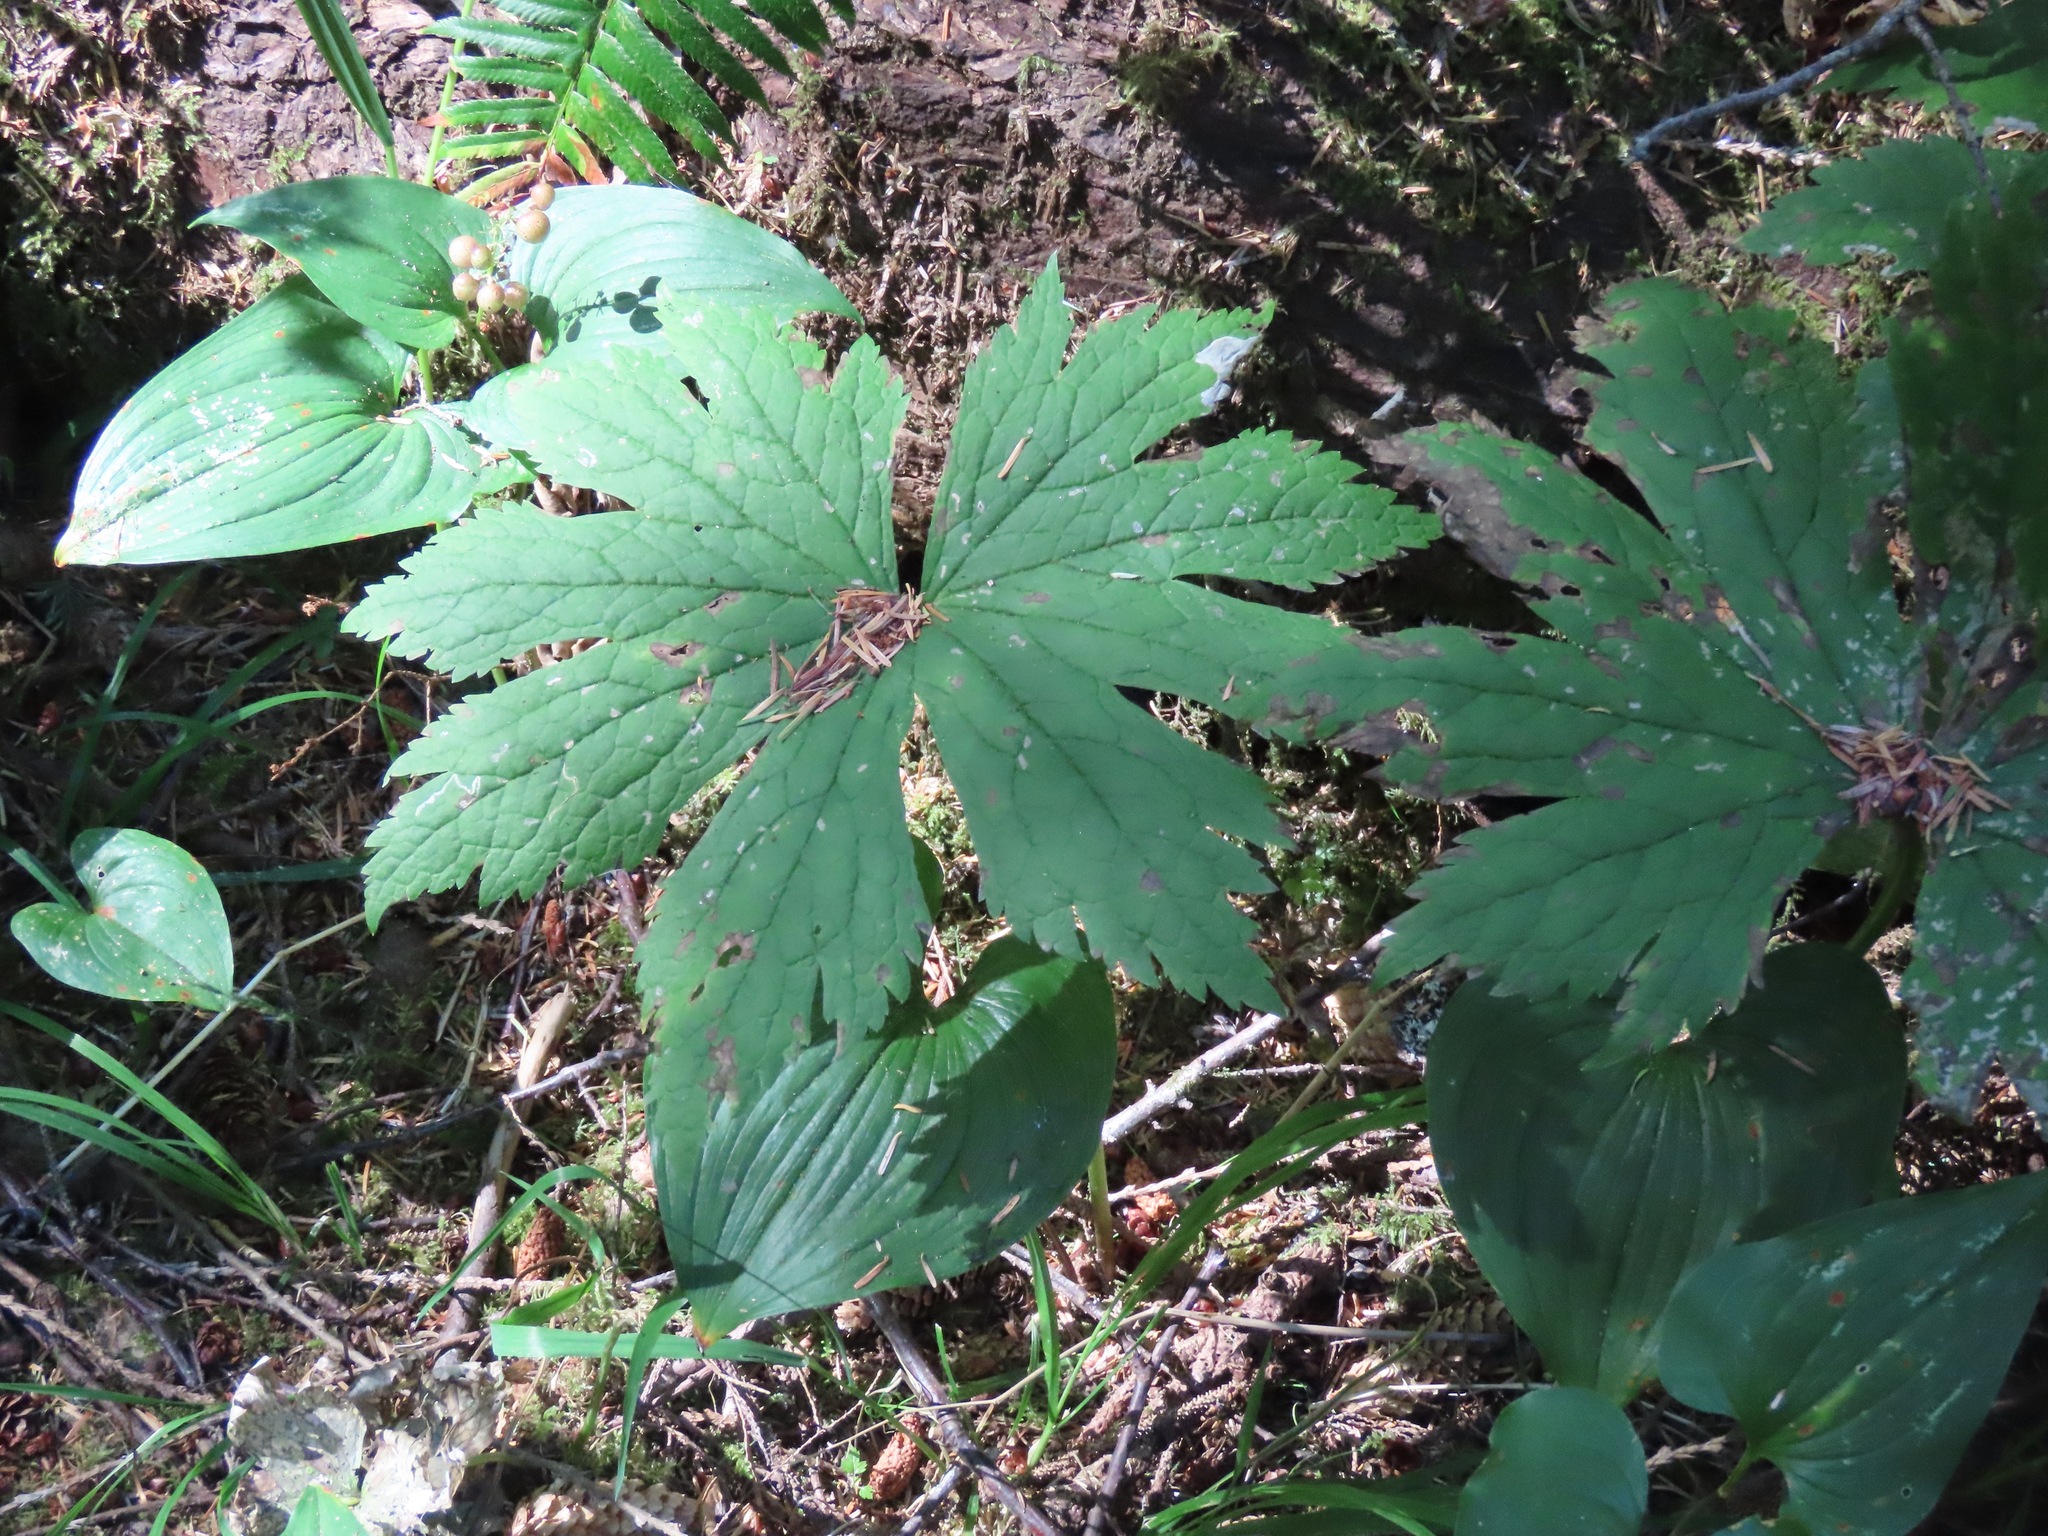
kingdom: Plantae
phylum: Tracheophyta
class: Magnoliopsida
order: Ranunculales
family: Ranunculaceae
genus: Trautvetteria
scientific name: Trautvetteria carolinensis
